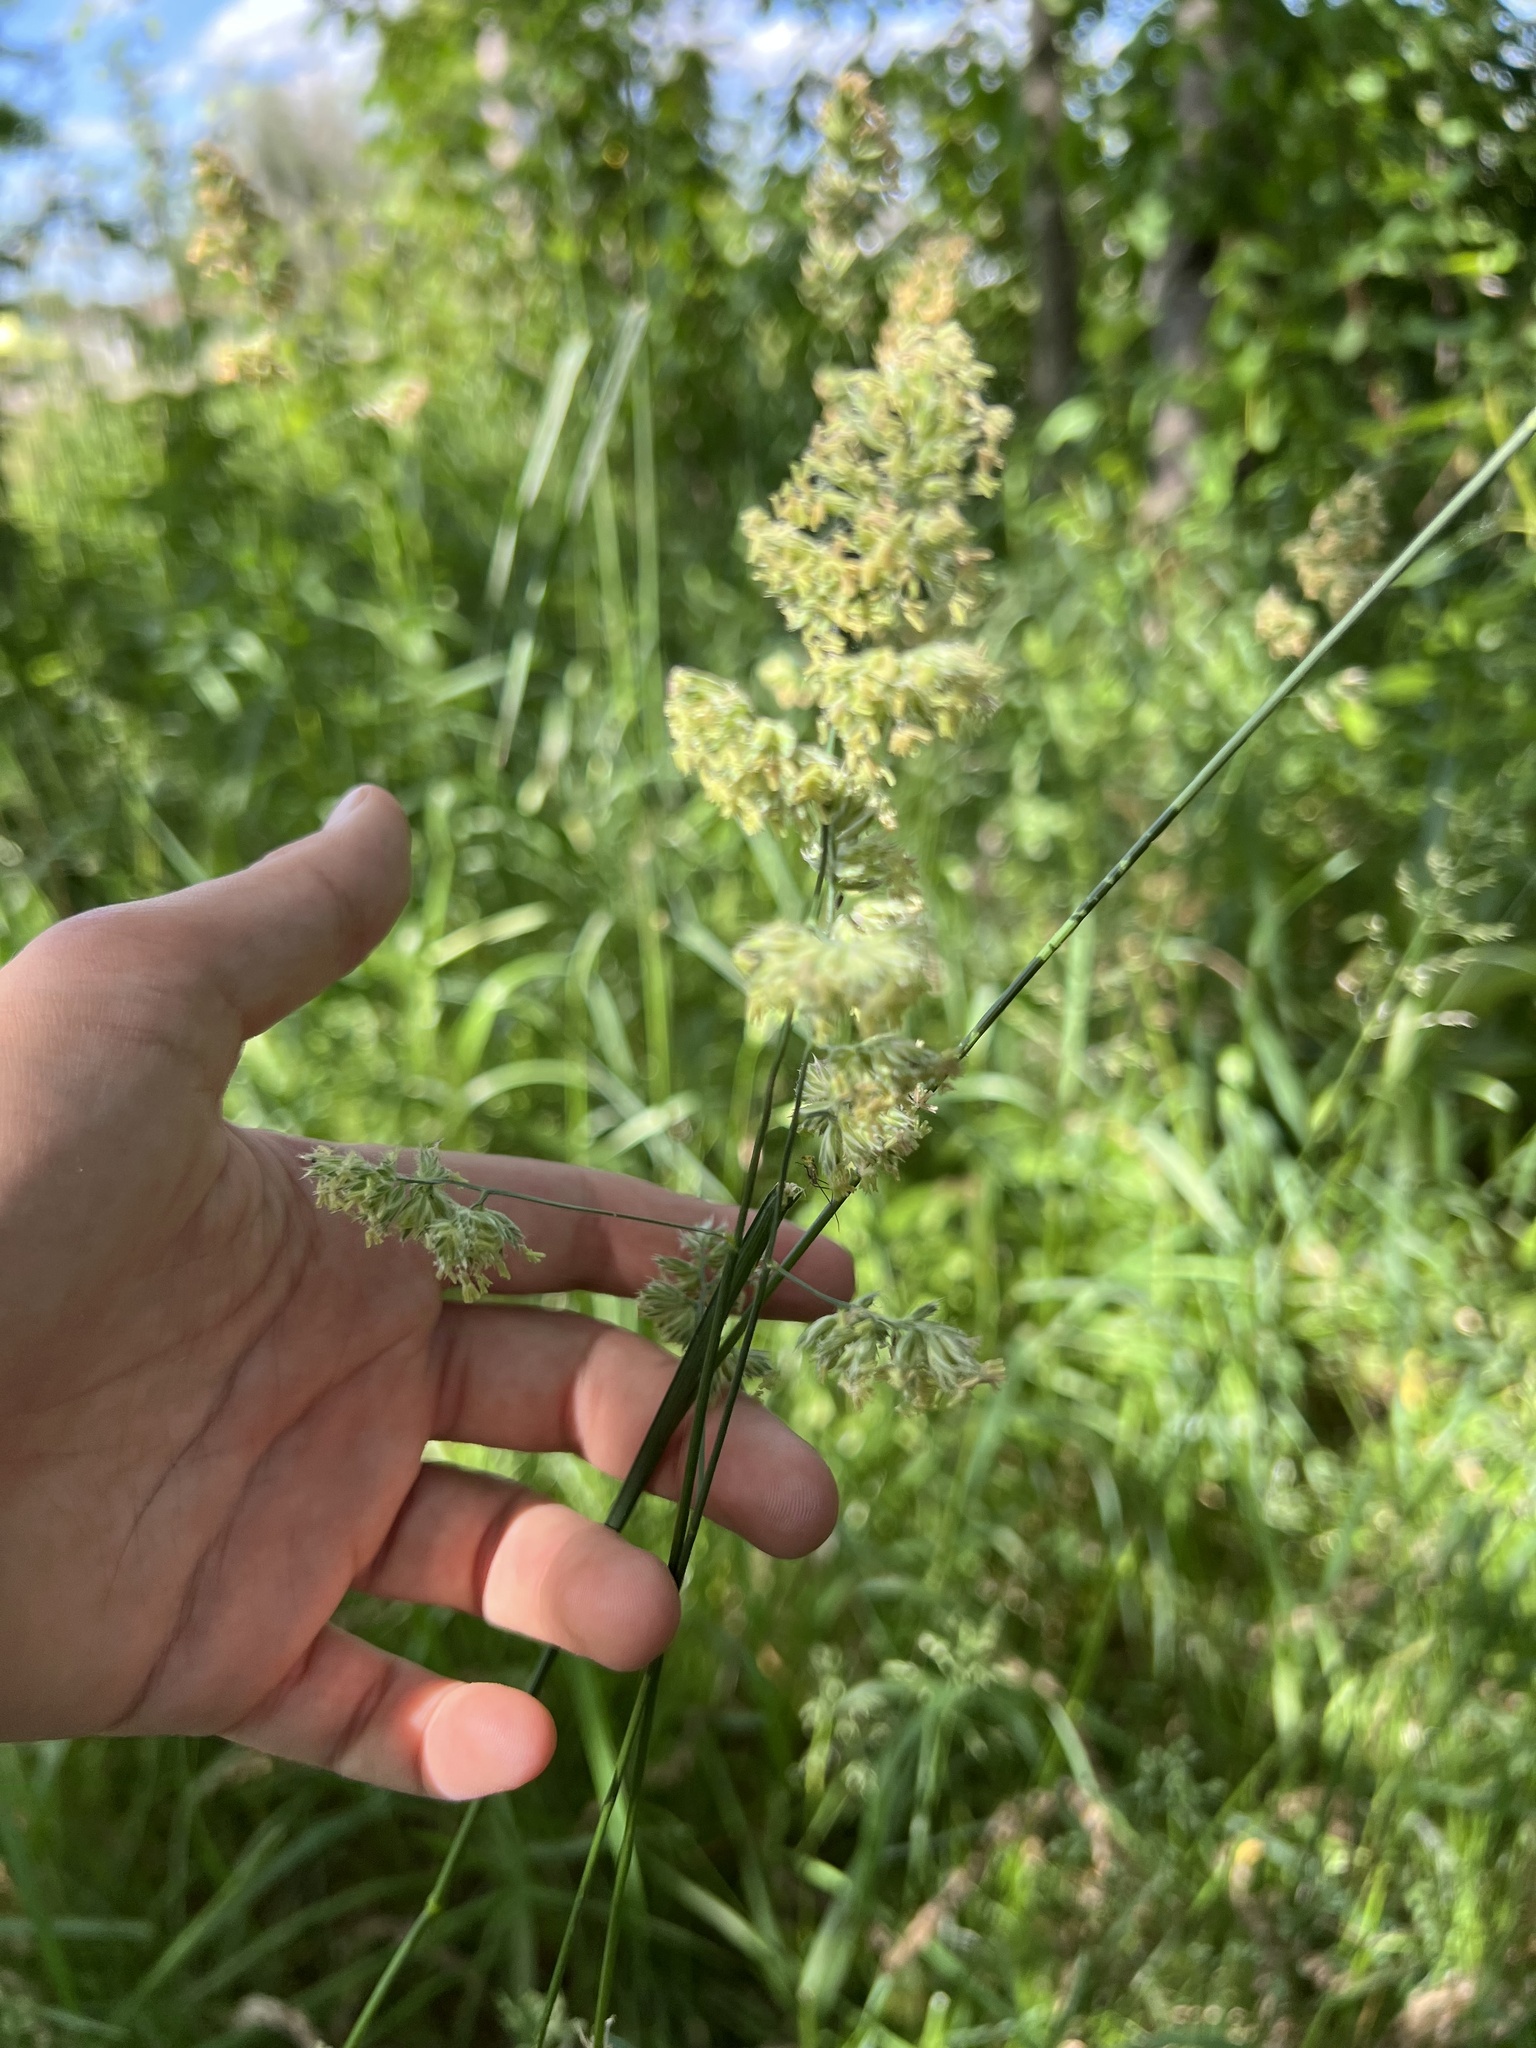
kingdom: Plantae
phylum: Tracheophyta
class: Liliopsida
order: Poales
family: Poaceae
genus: Dactylis
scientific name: Dactylis glomerata
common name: Orchardgrass
